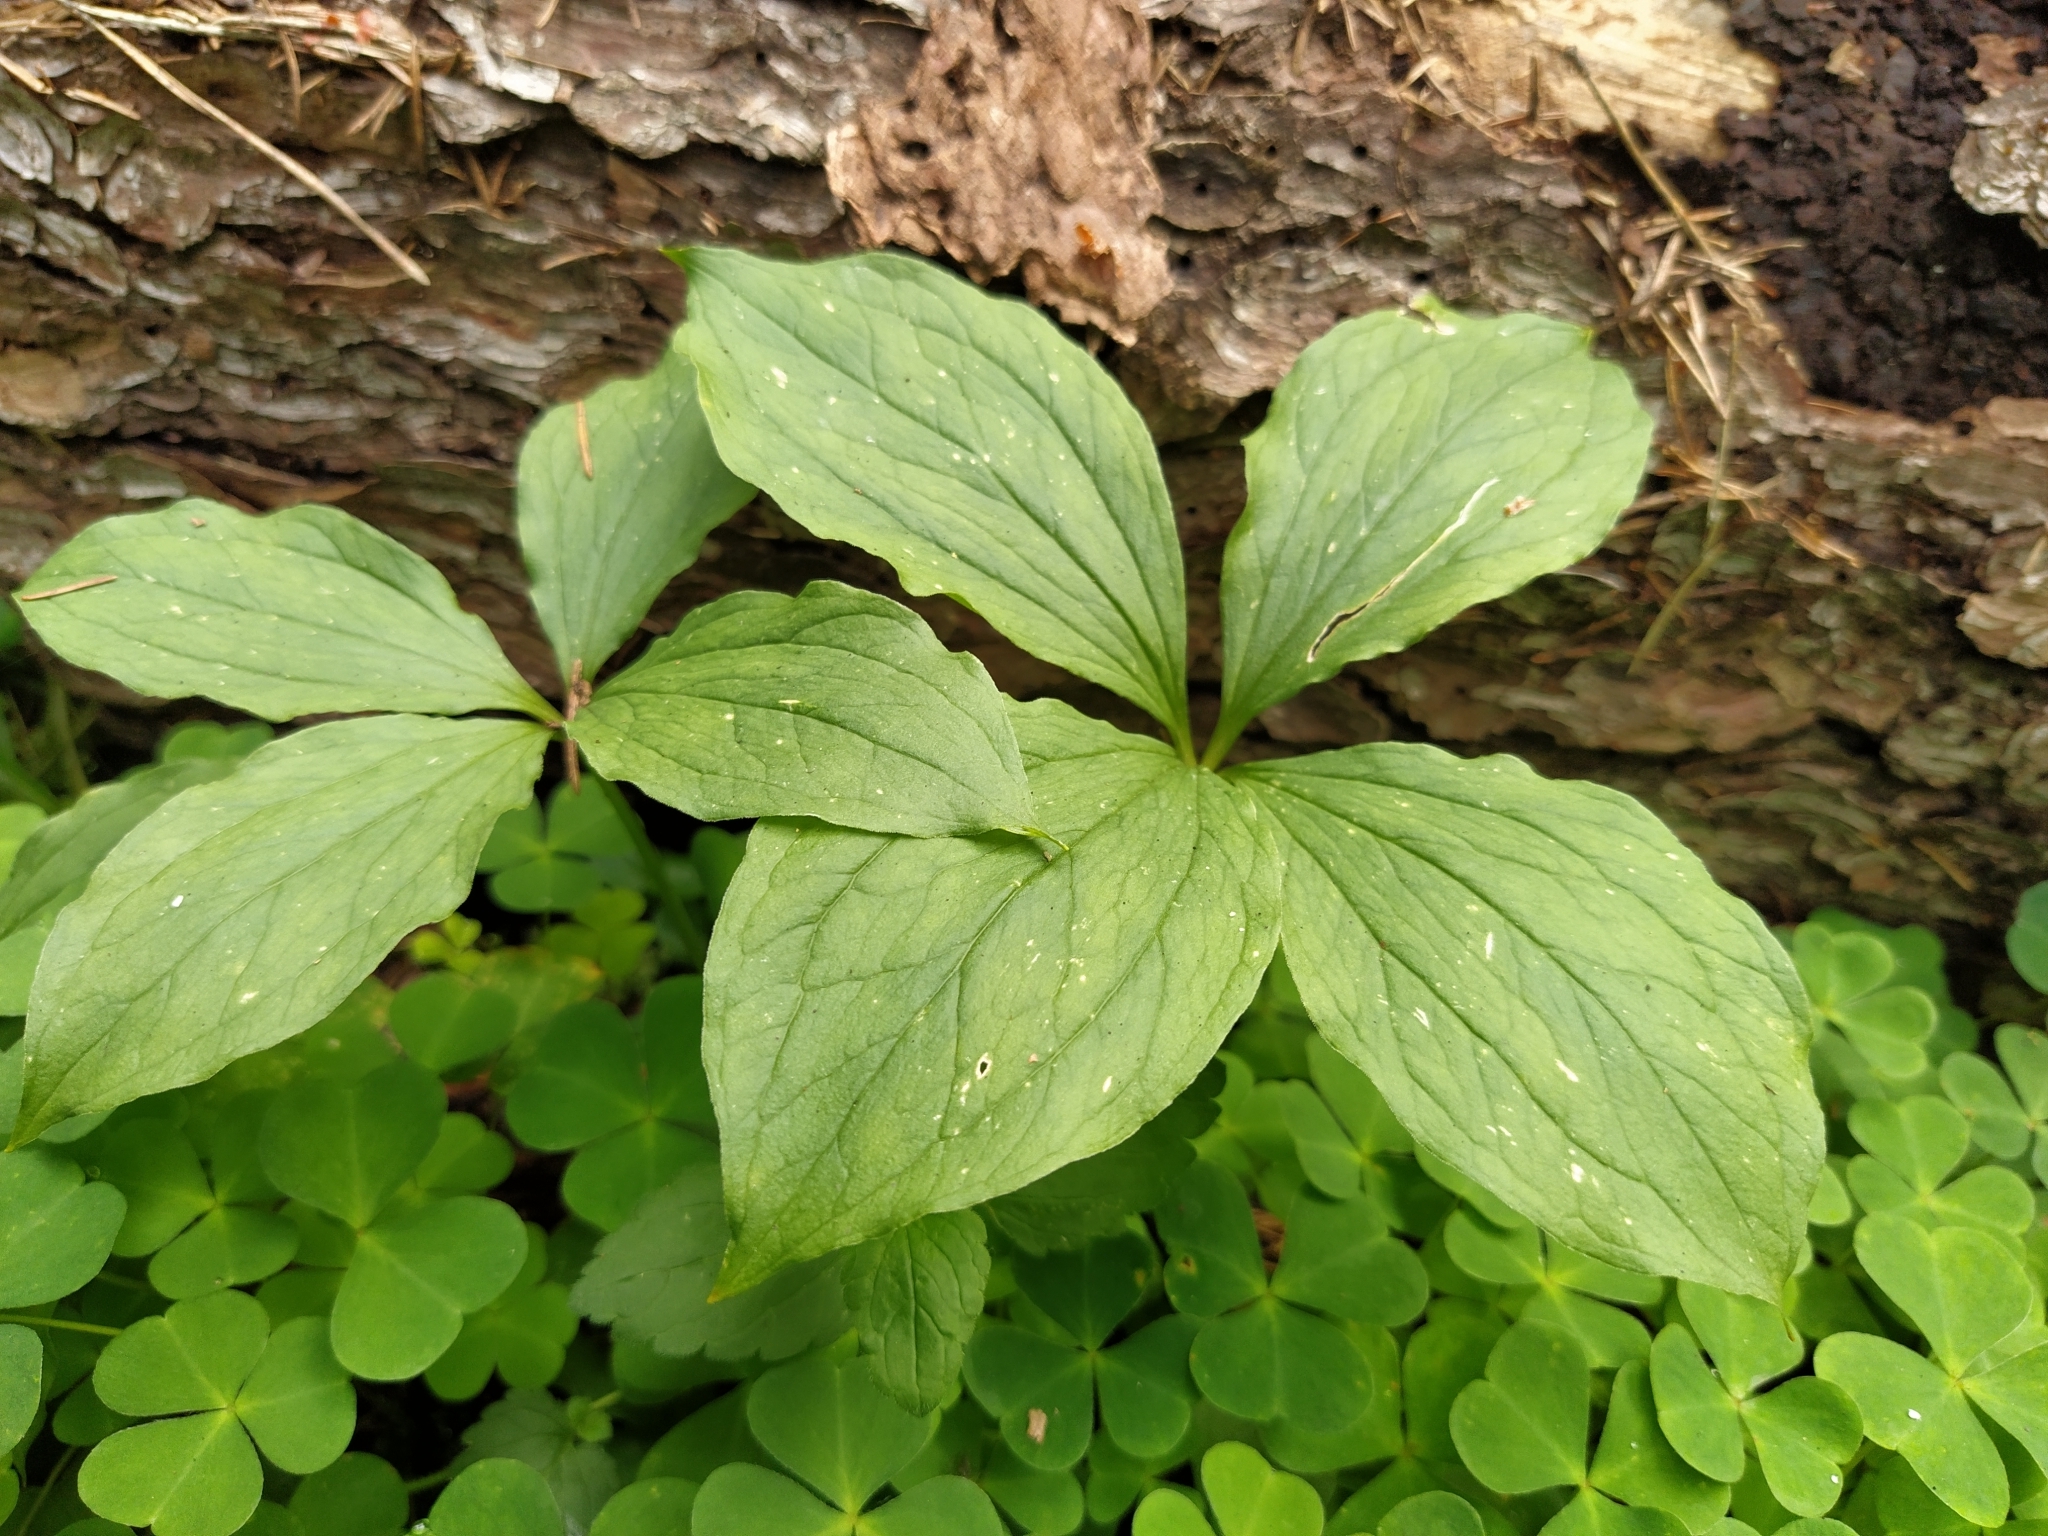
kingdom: Plantae
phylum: Tracheophyta
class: Liliopsida
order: Liliales
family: Melanthiaceae
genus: Paris
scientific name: Paris quadrifolia
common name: Herb-paris
